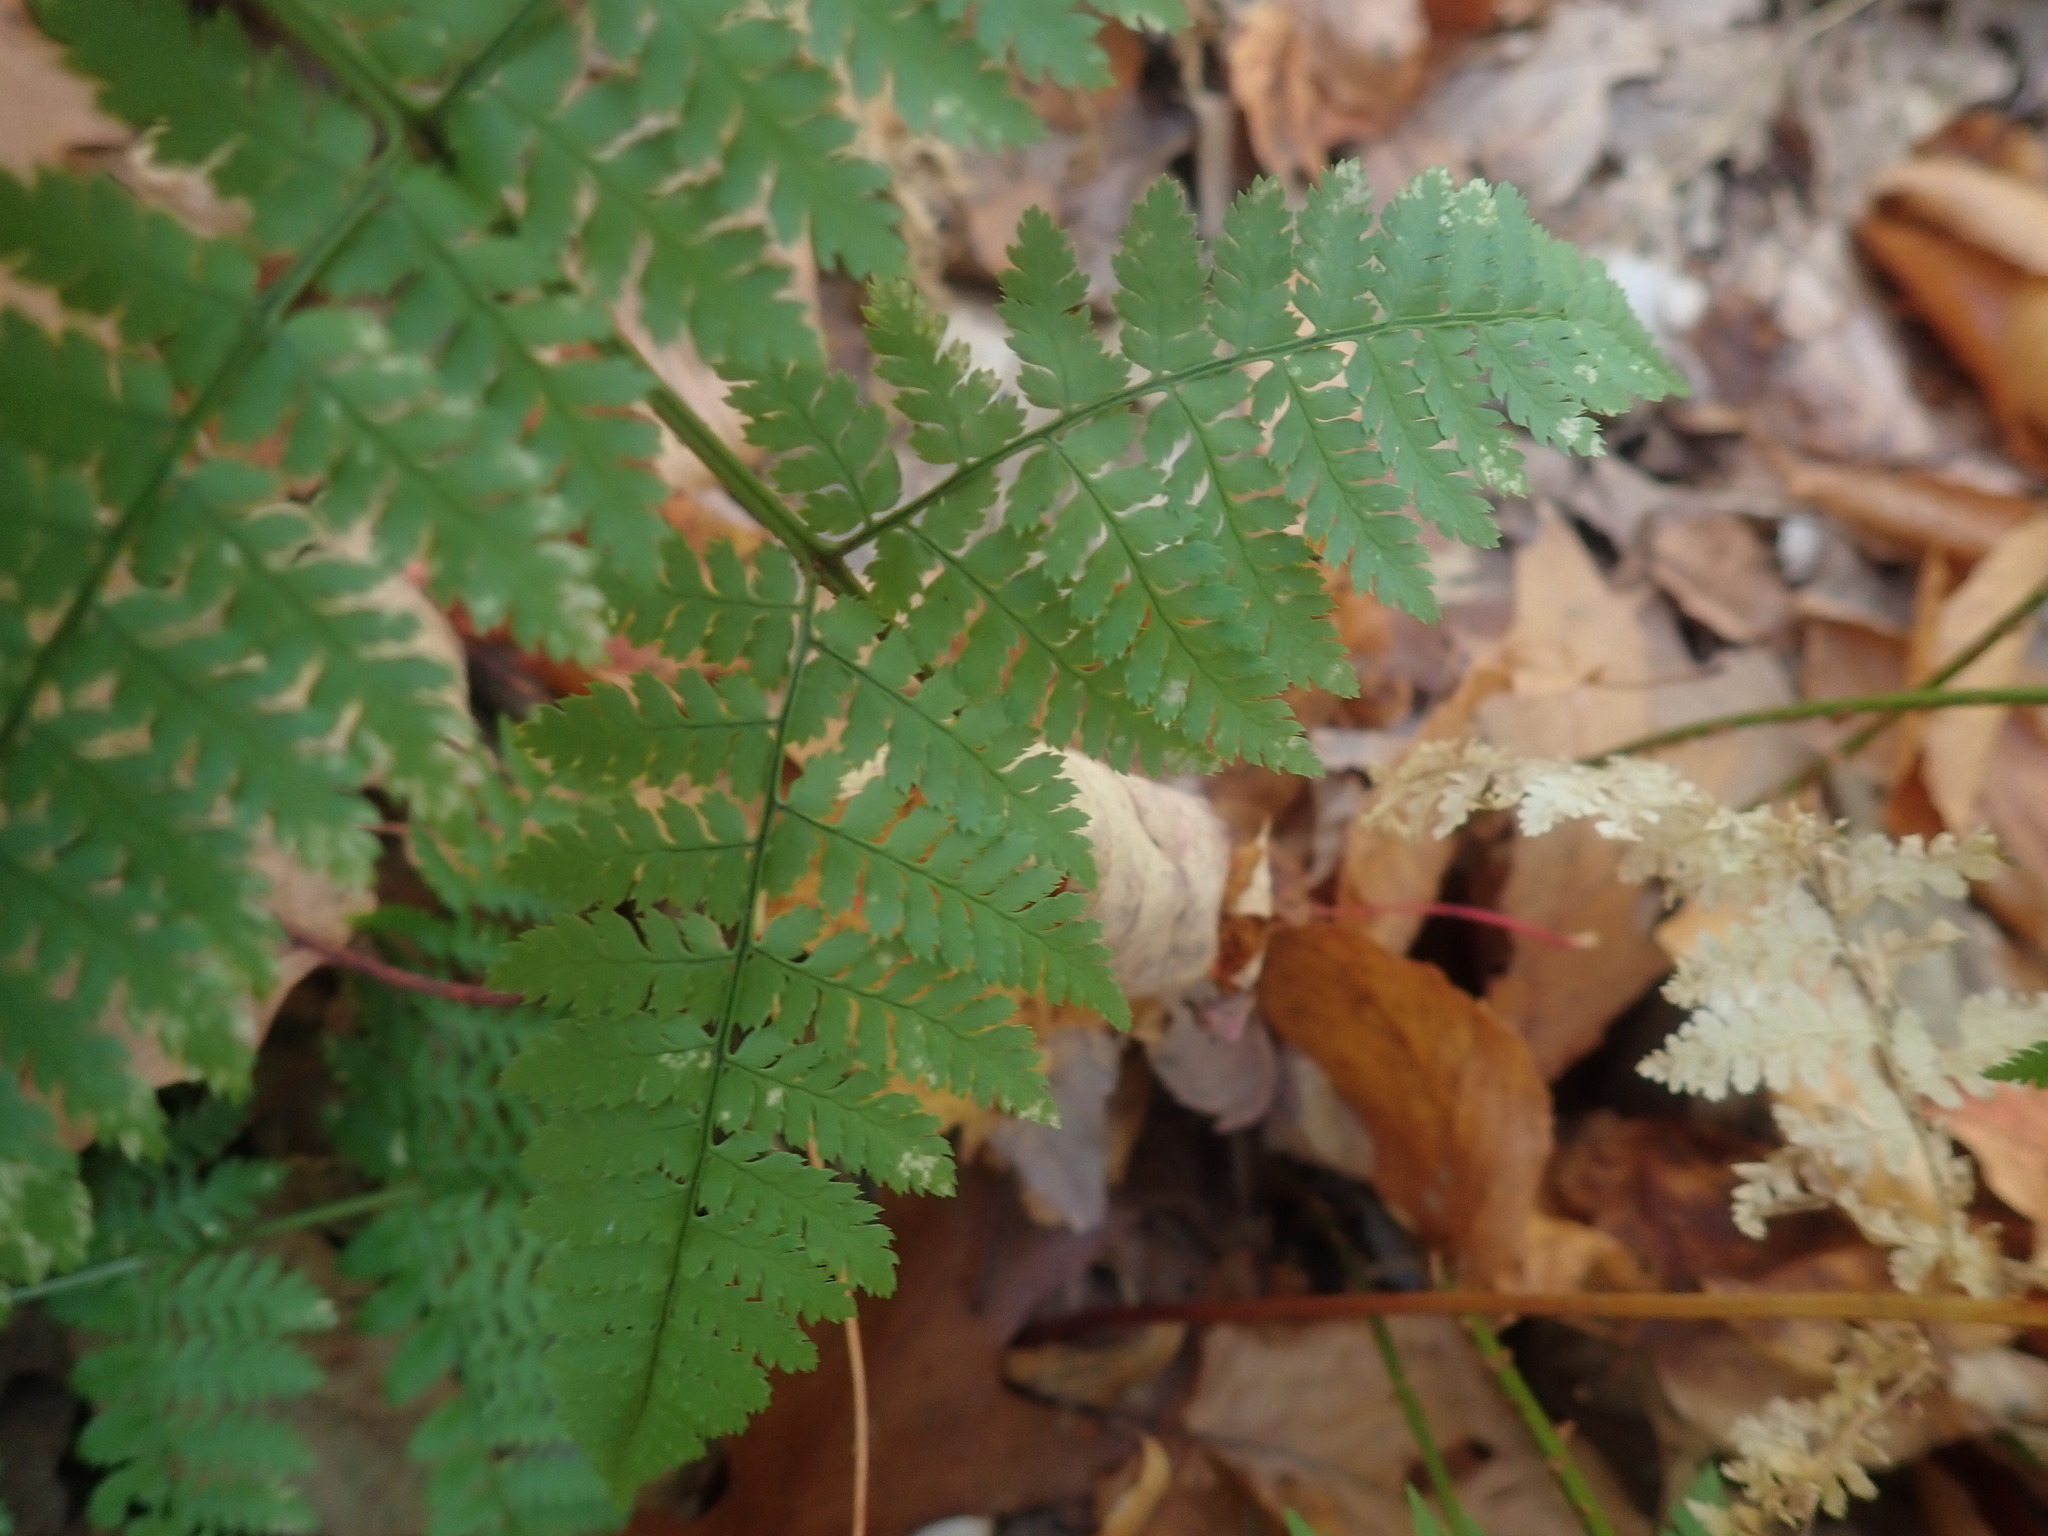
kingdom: Plantae
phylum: Tracheophyta
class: Polypodiopsida
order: Polypodiales
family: Dryopteridaceae
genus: Dryopteris
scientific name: Dryopteris intermedia
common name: Evergreen wood fern
